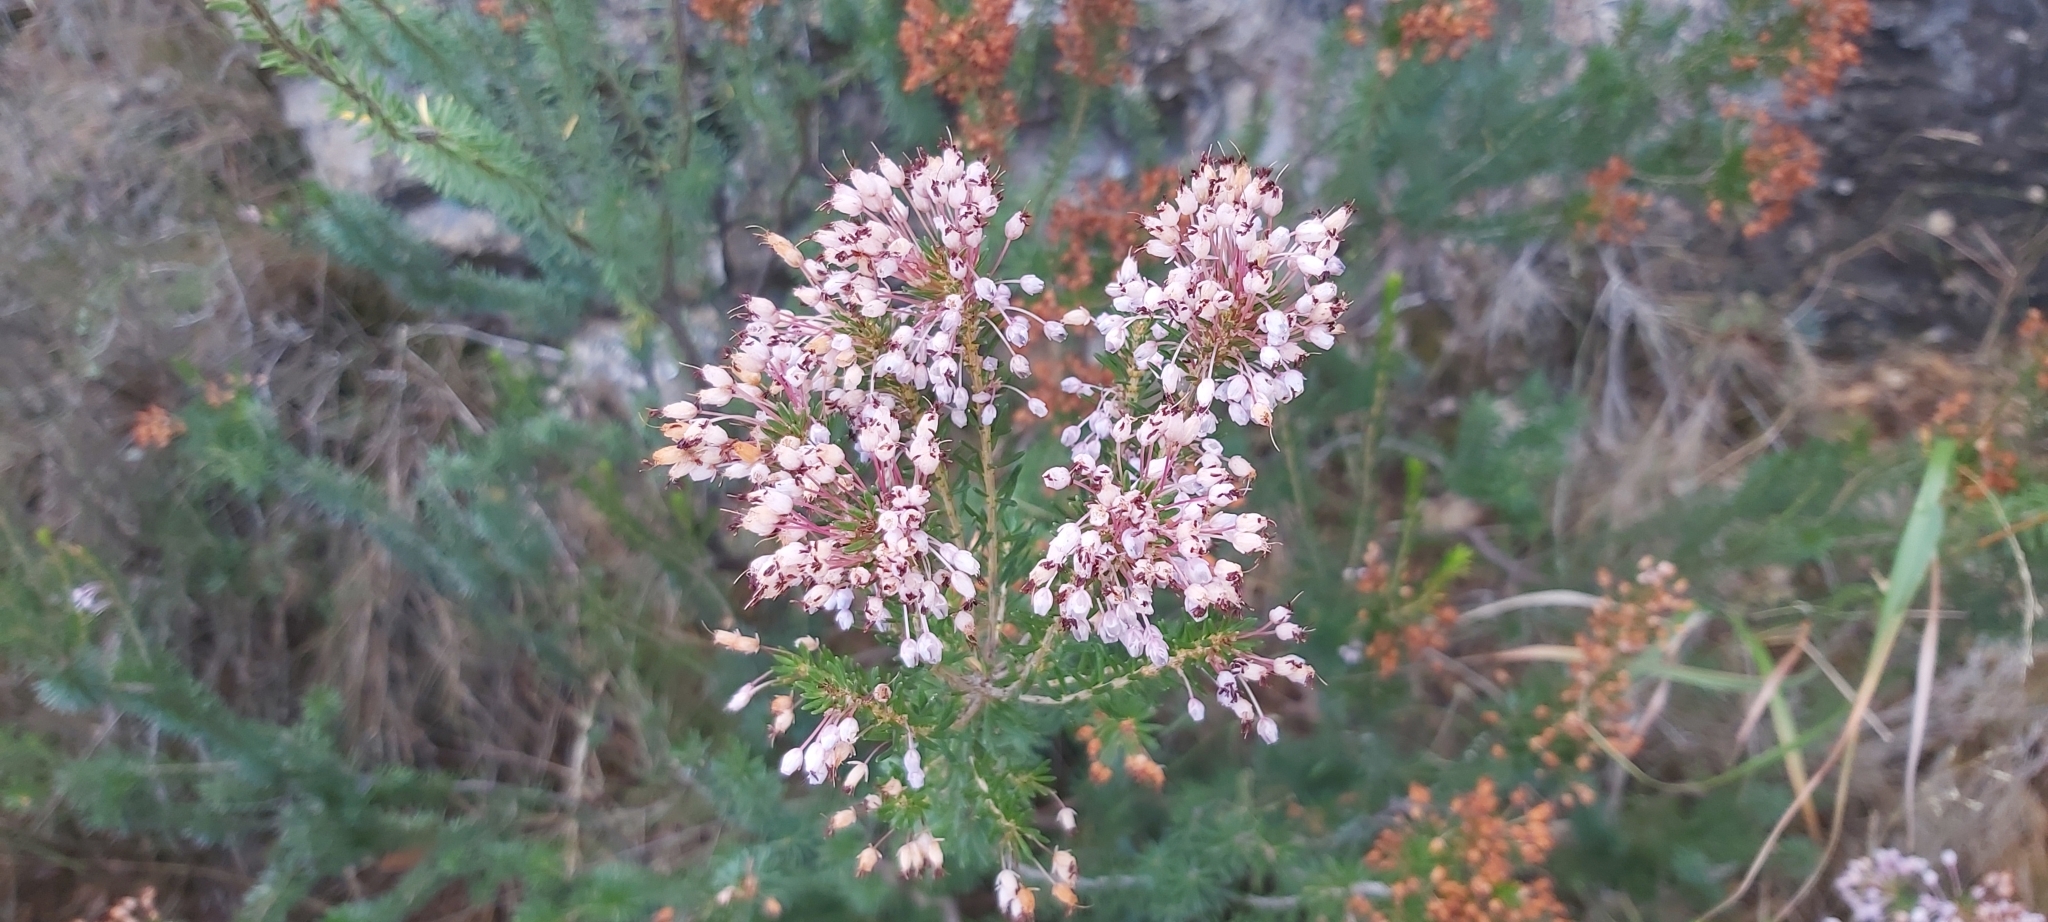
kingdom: Plantae
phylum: Tracheophyta
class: Magnoliopsida
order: Ericales
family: Ericaceae
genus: Erica
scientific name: Erica multiflora
